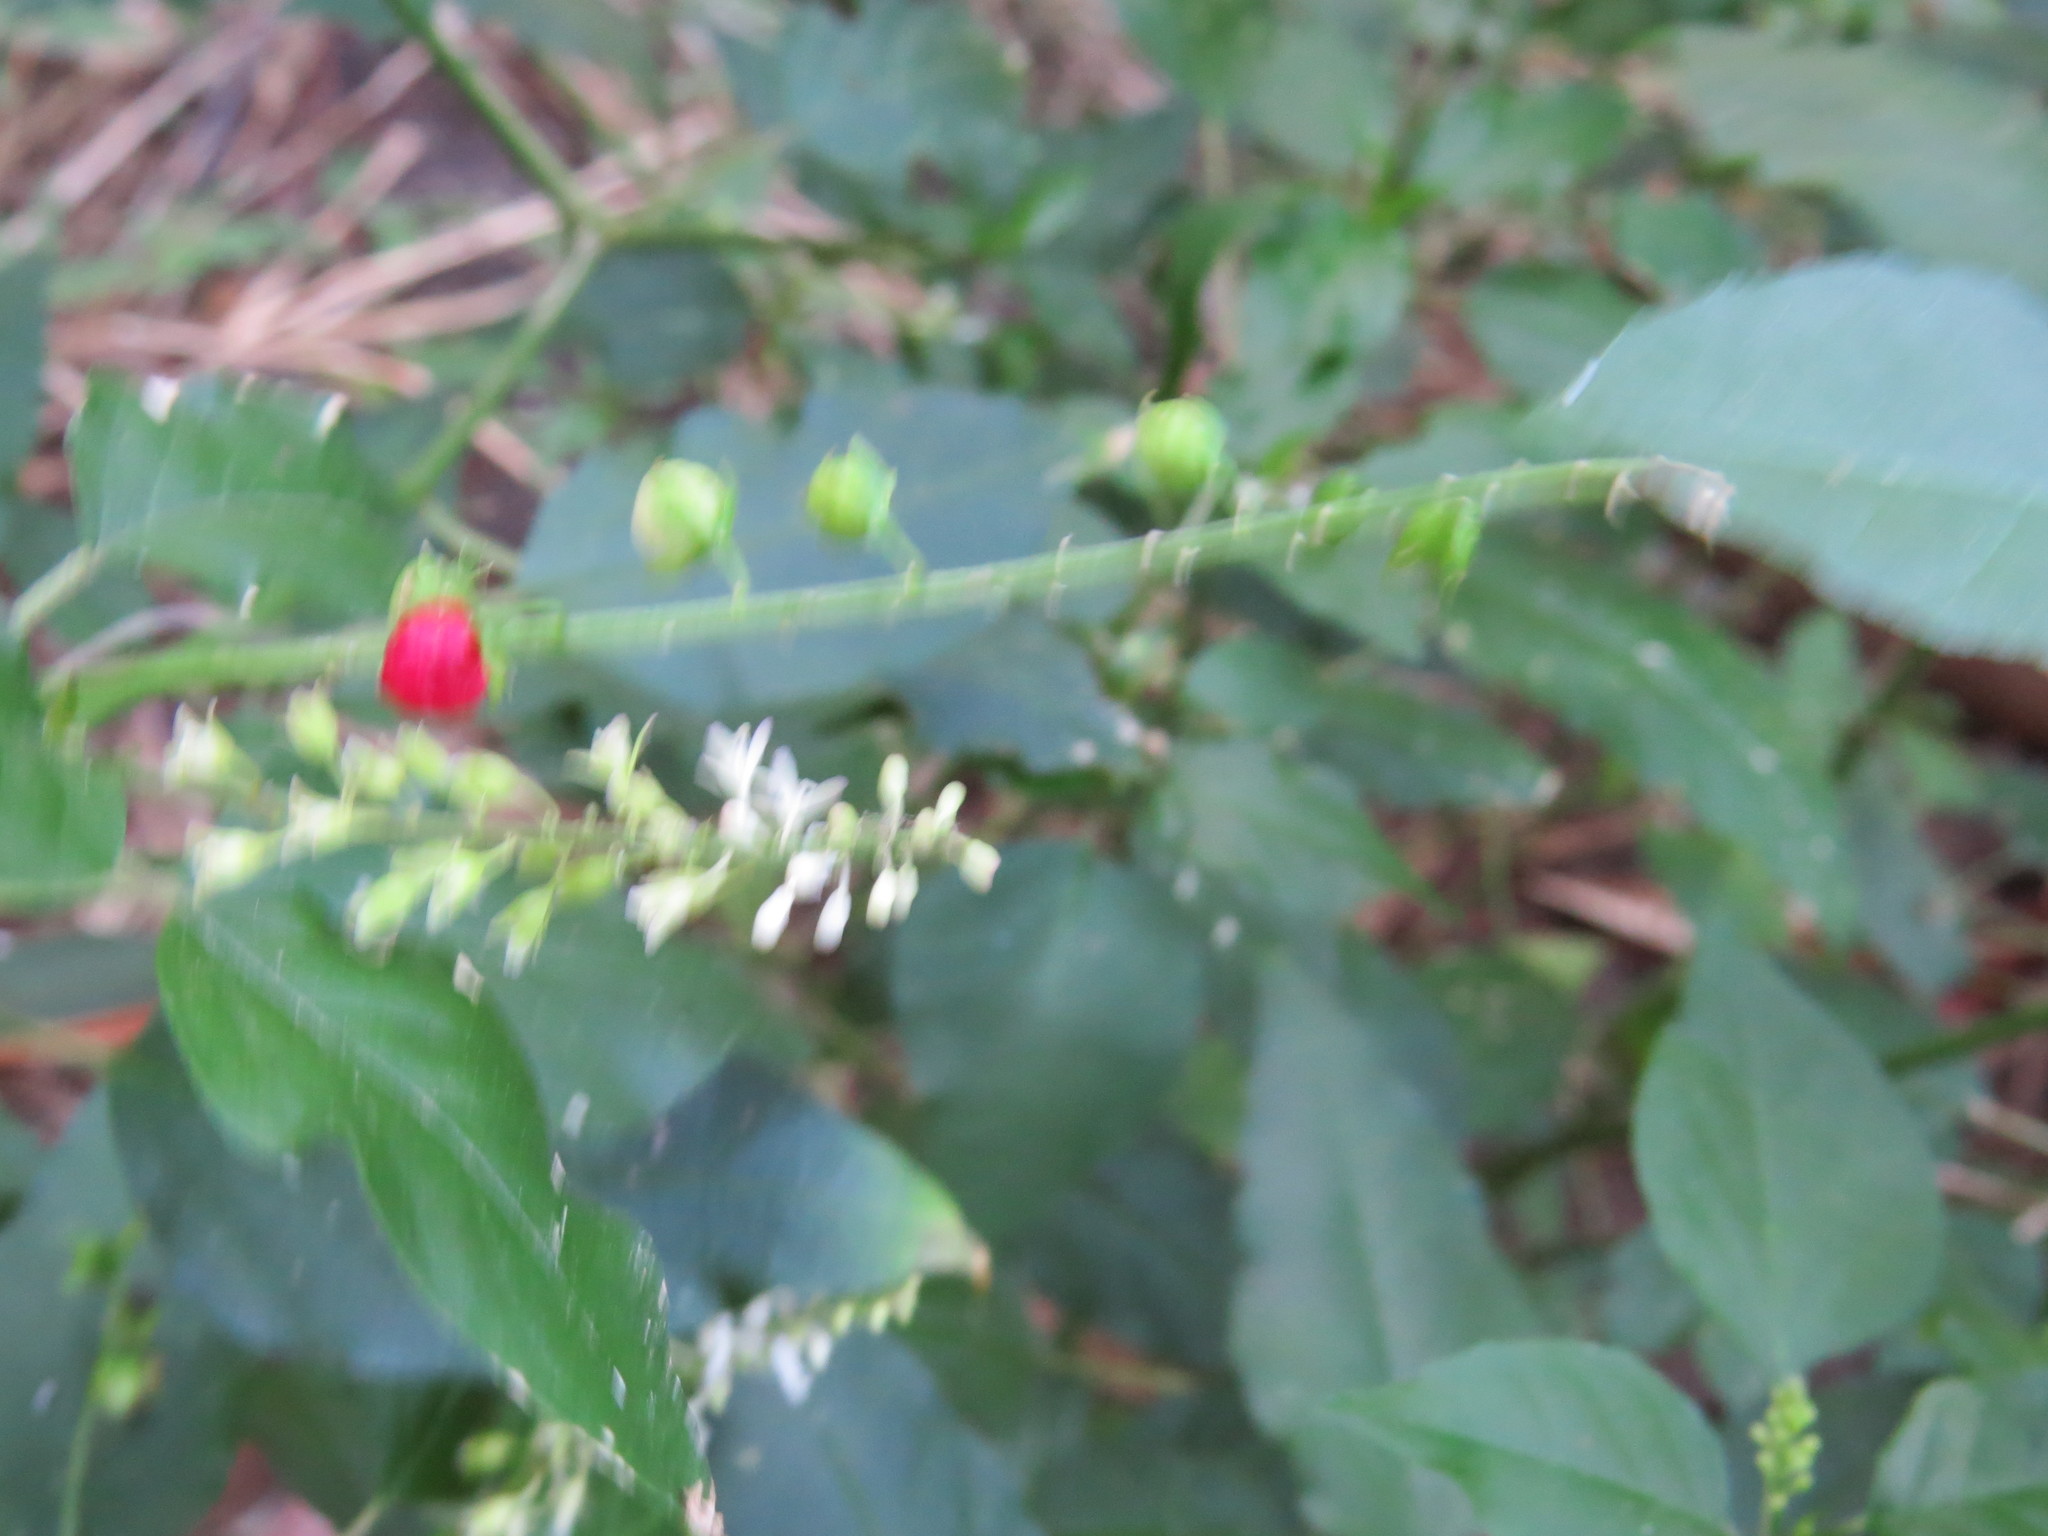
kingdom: Plantae
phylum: Tracheophyta
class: Magnoliopsida
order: Caryophyllales
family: Phytolaccaceae
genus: Rivina
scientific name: Rivina humilis
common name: Rougeplant
